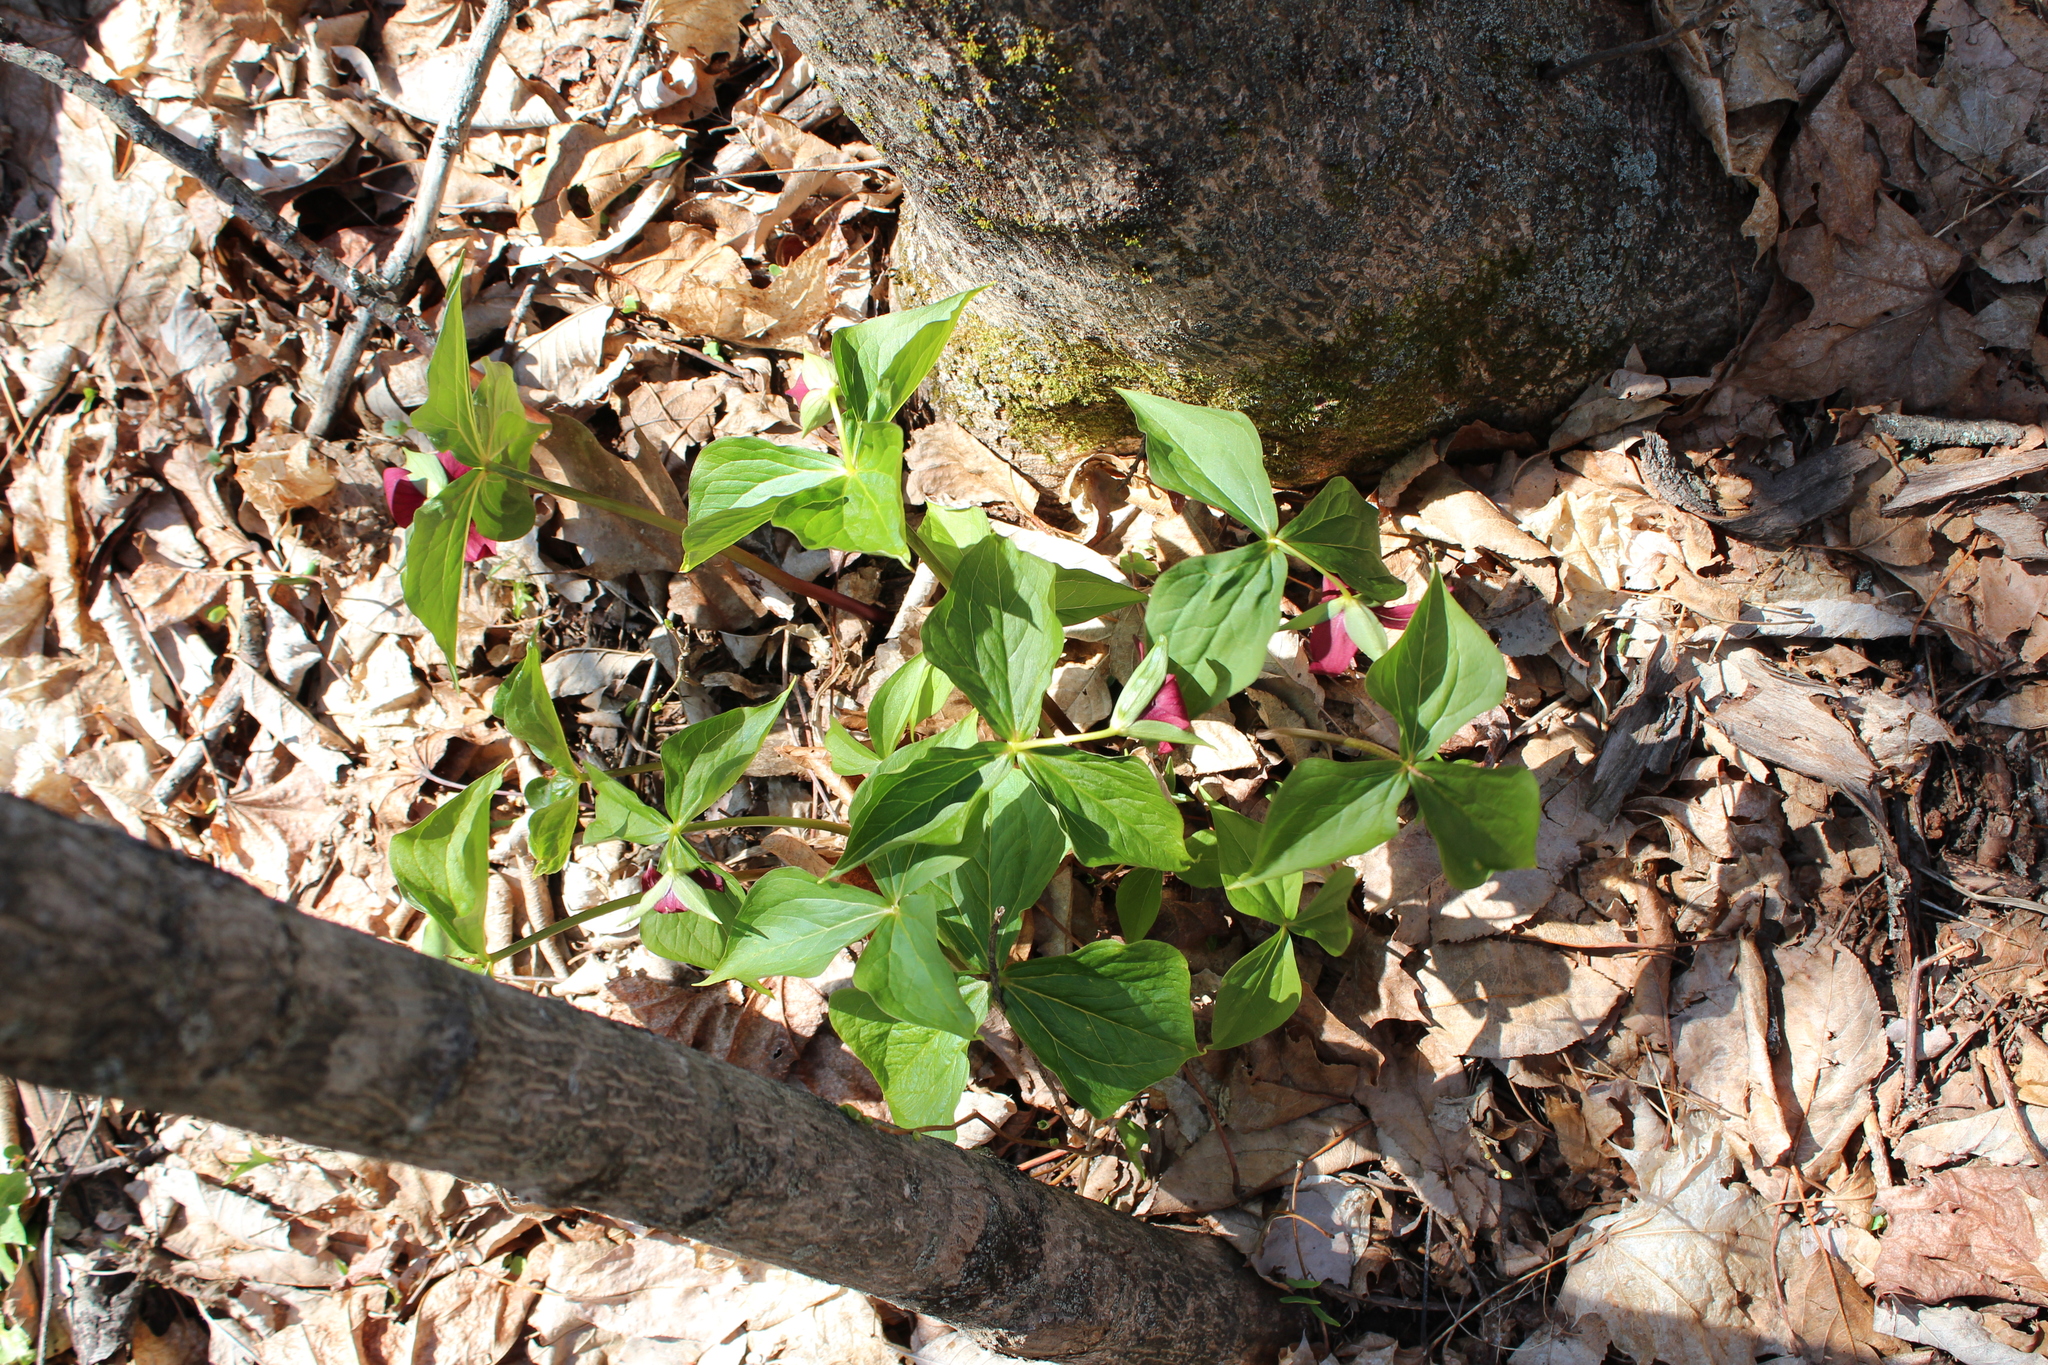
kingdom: Plantae
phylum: Tracheophyta
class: Liliopsida
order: Liliales
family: Melanthiaceae
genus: Trillium
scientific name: Trillium erectum
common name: Purple trillium
